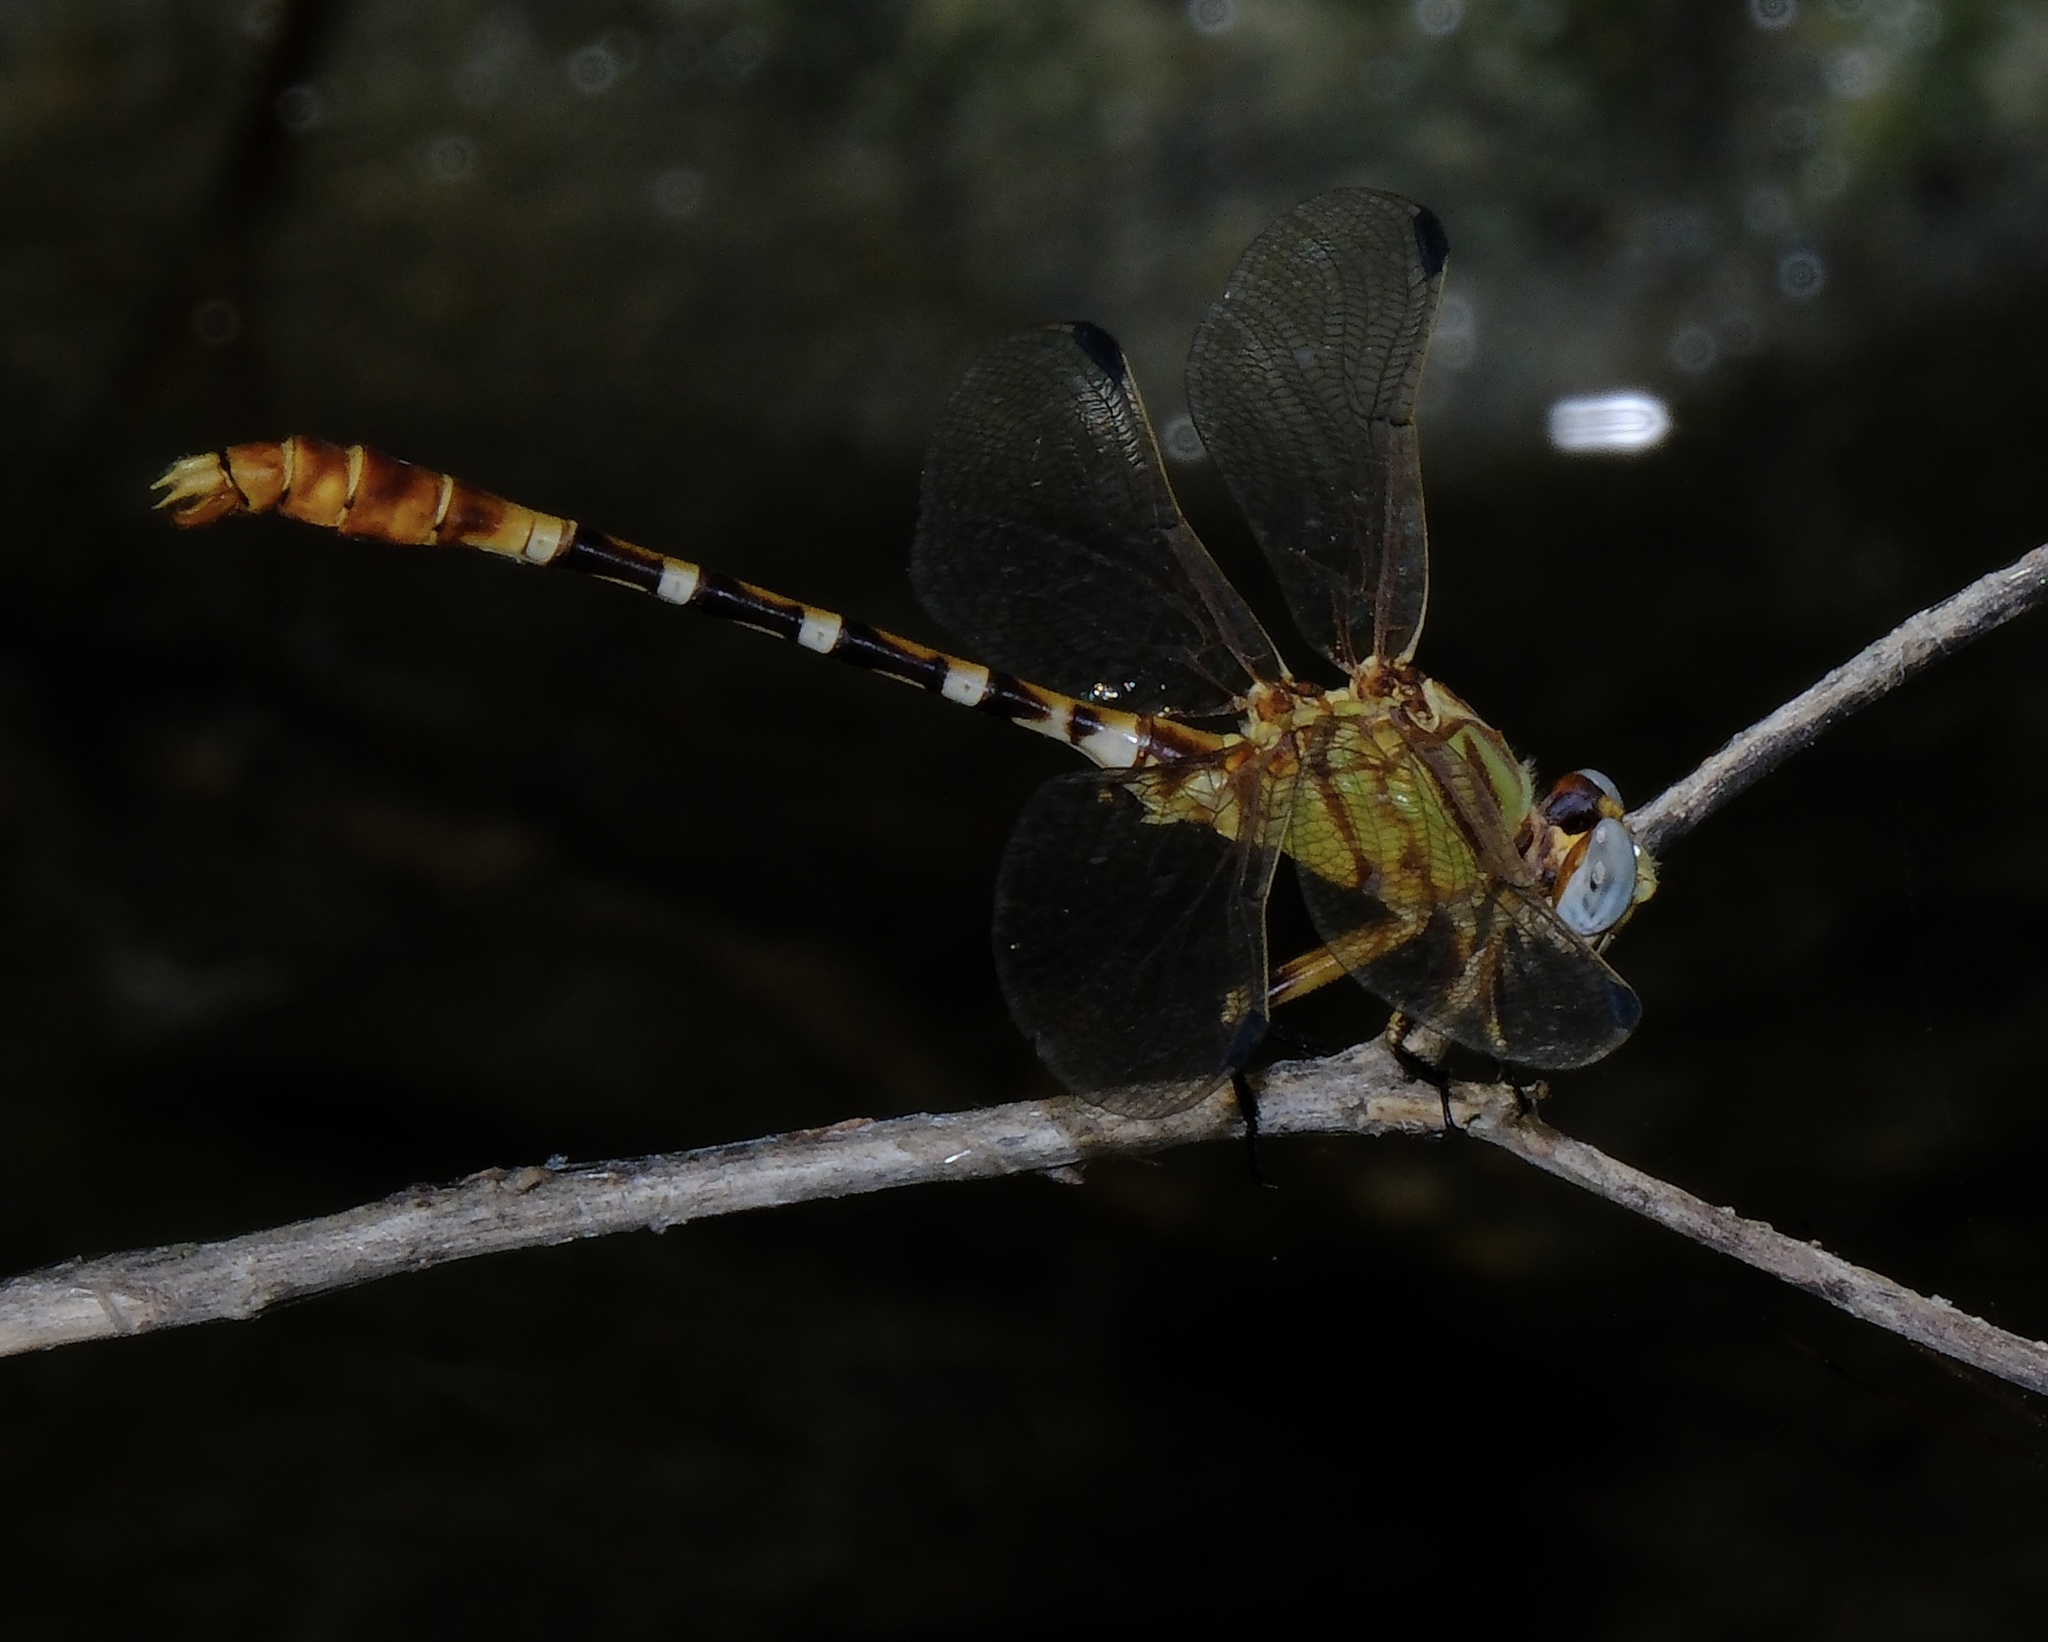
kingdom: Animalia
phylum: Arthropoda
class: Insecta
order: Odonata
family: Gomphidae
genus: Erpetogomphus
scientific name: Erpetogomphus designatus
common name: Eastern ringtail
